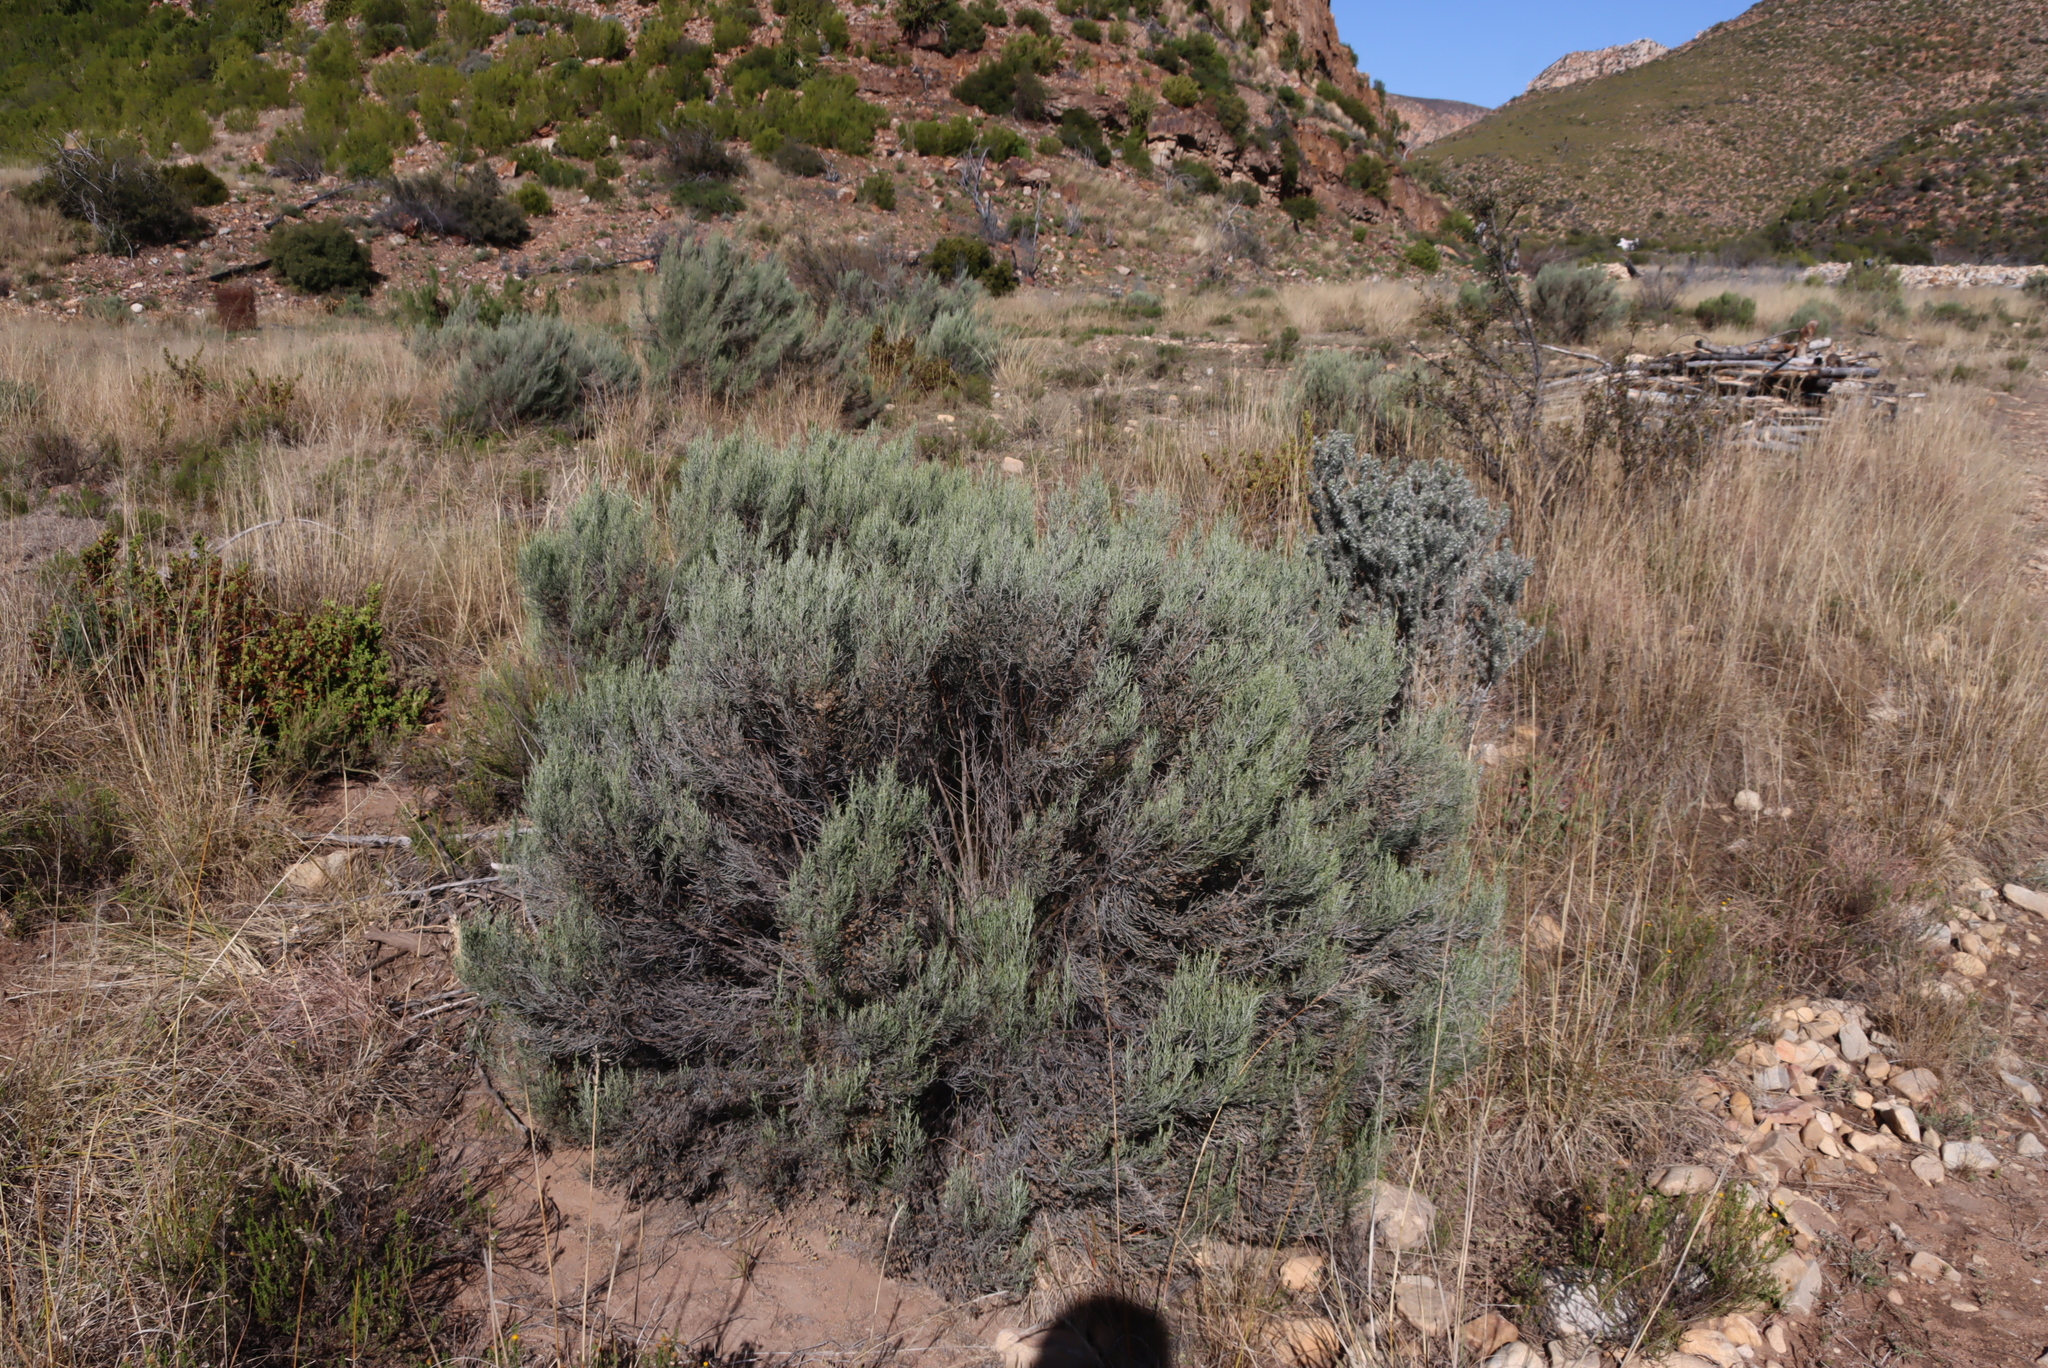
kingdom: Plantae
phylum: Tracheophyta
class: Magnoliopsida
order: Asterales
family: Asteraceae
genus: Dicerothamnus
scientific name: Dicerothamnus rhinocerotis
